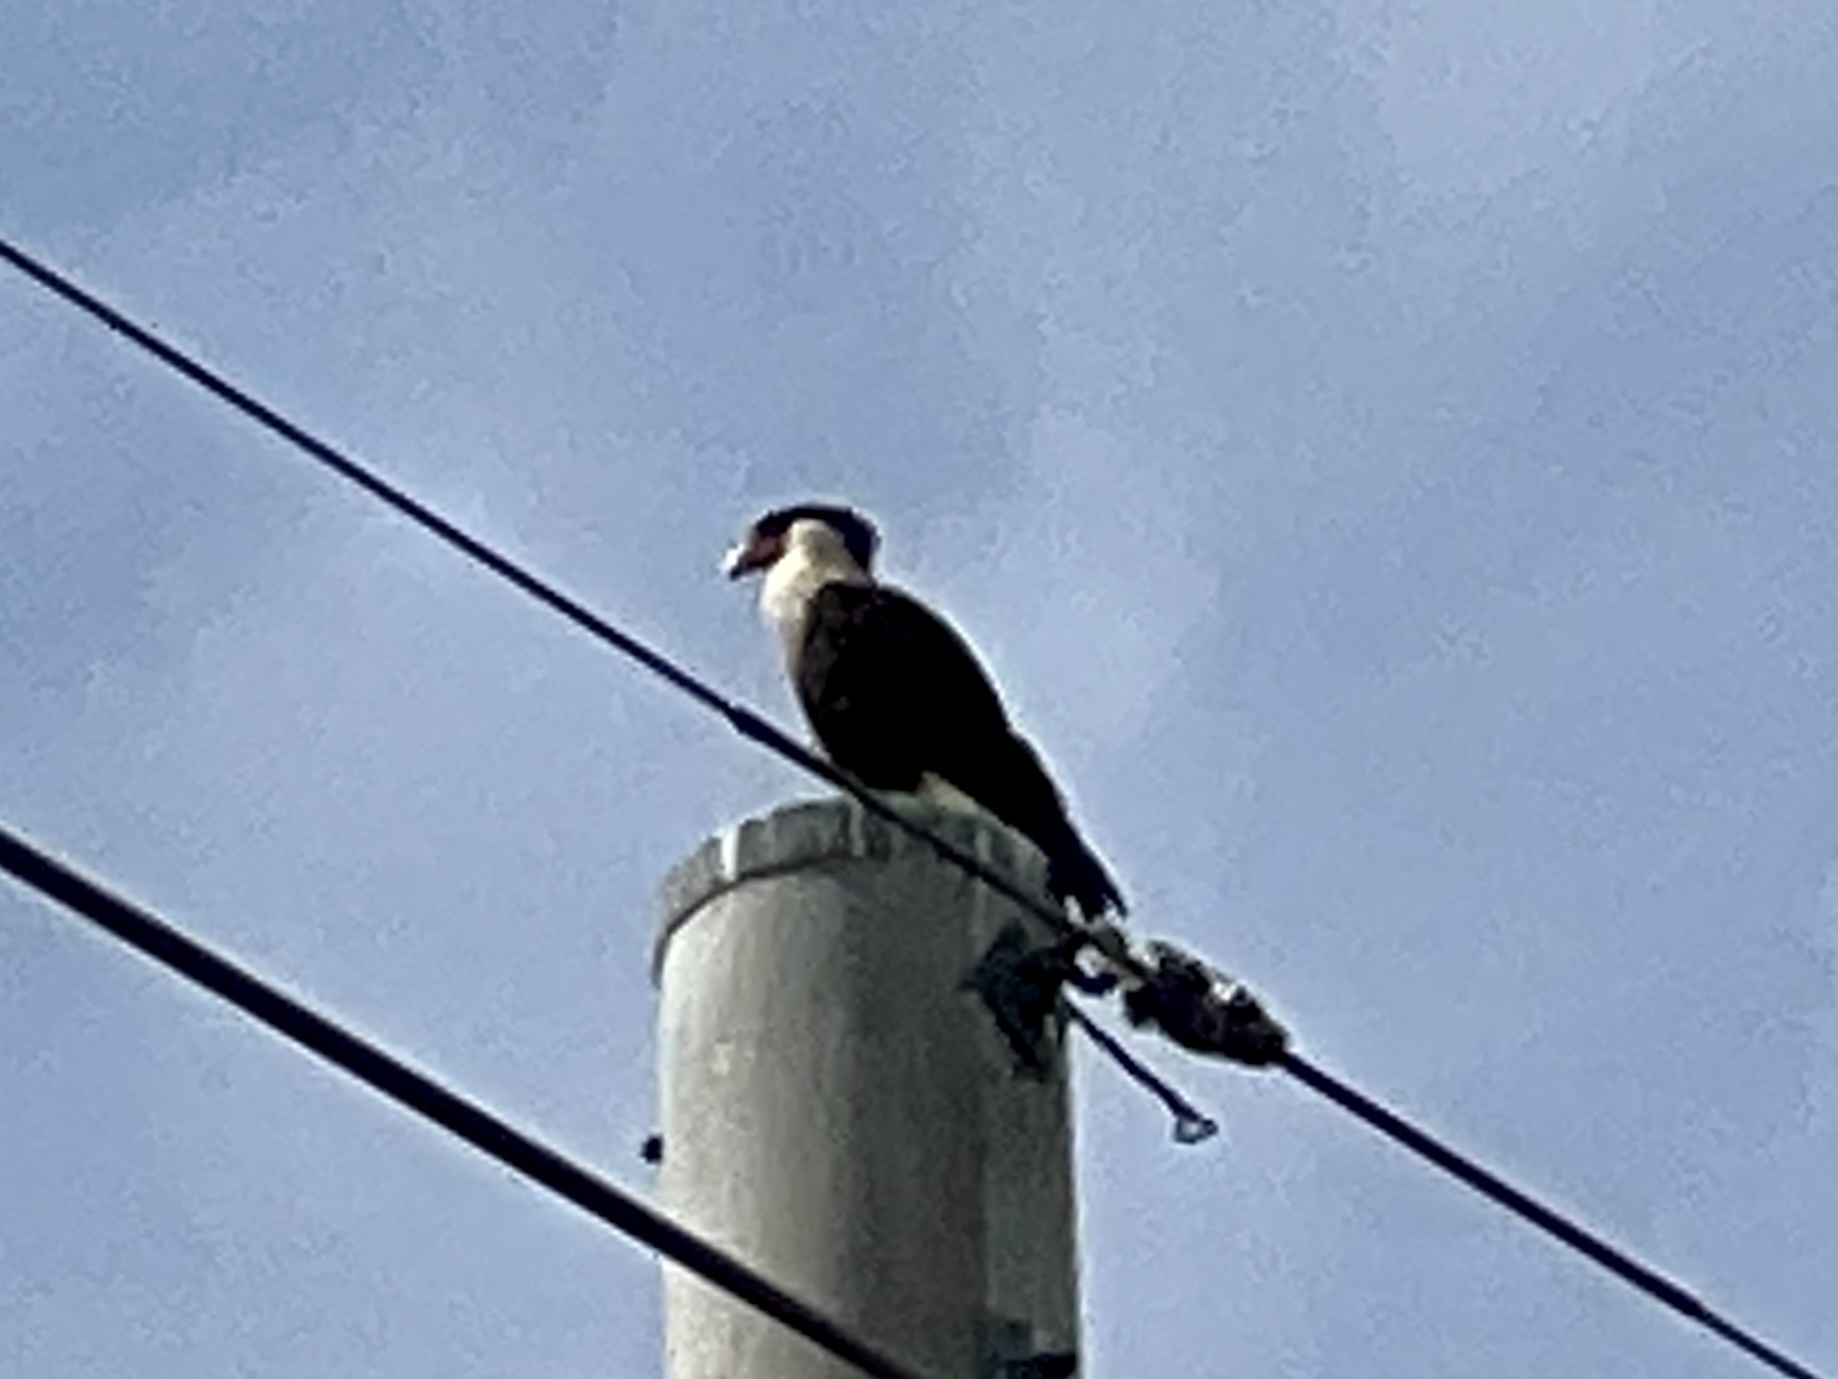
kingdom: Animalia
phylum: Chordata
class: Aves
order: Falconiformes
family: Falconidae
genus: Caracara
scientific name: Caracara plancus
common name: Southern caracara
